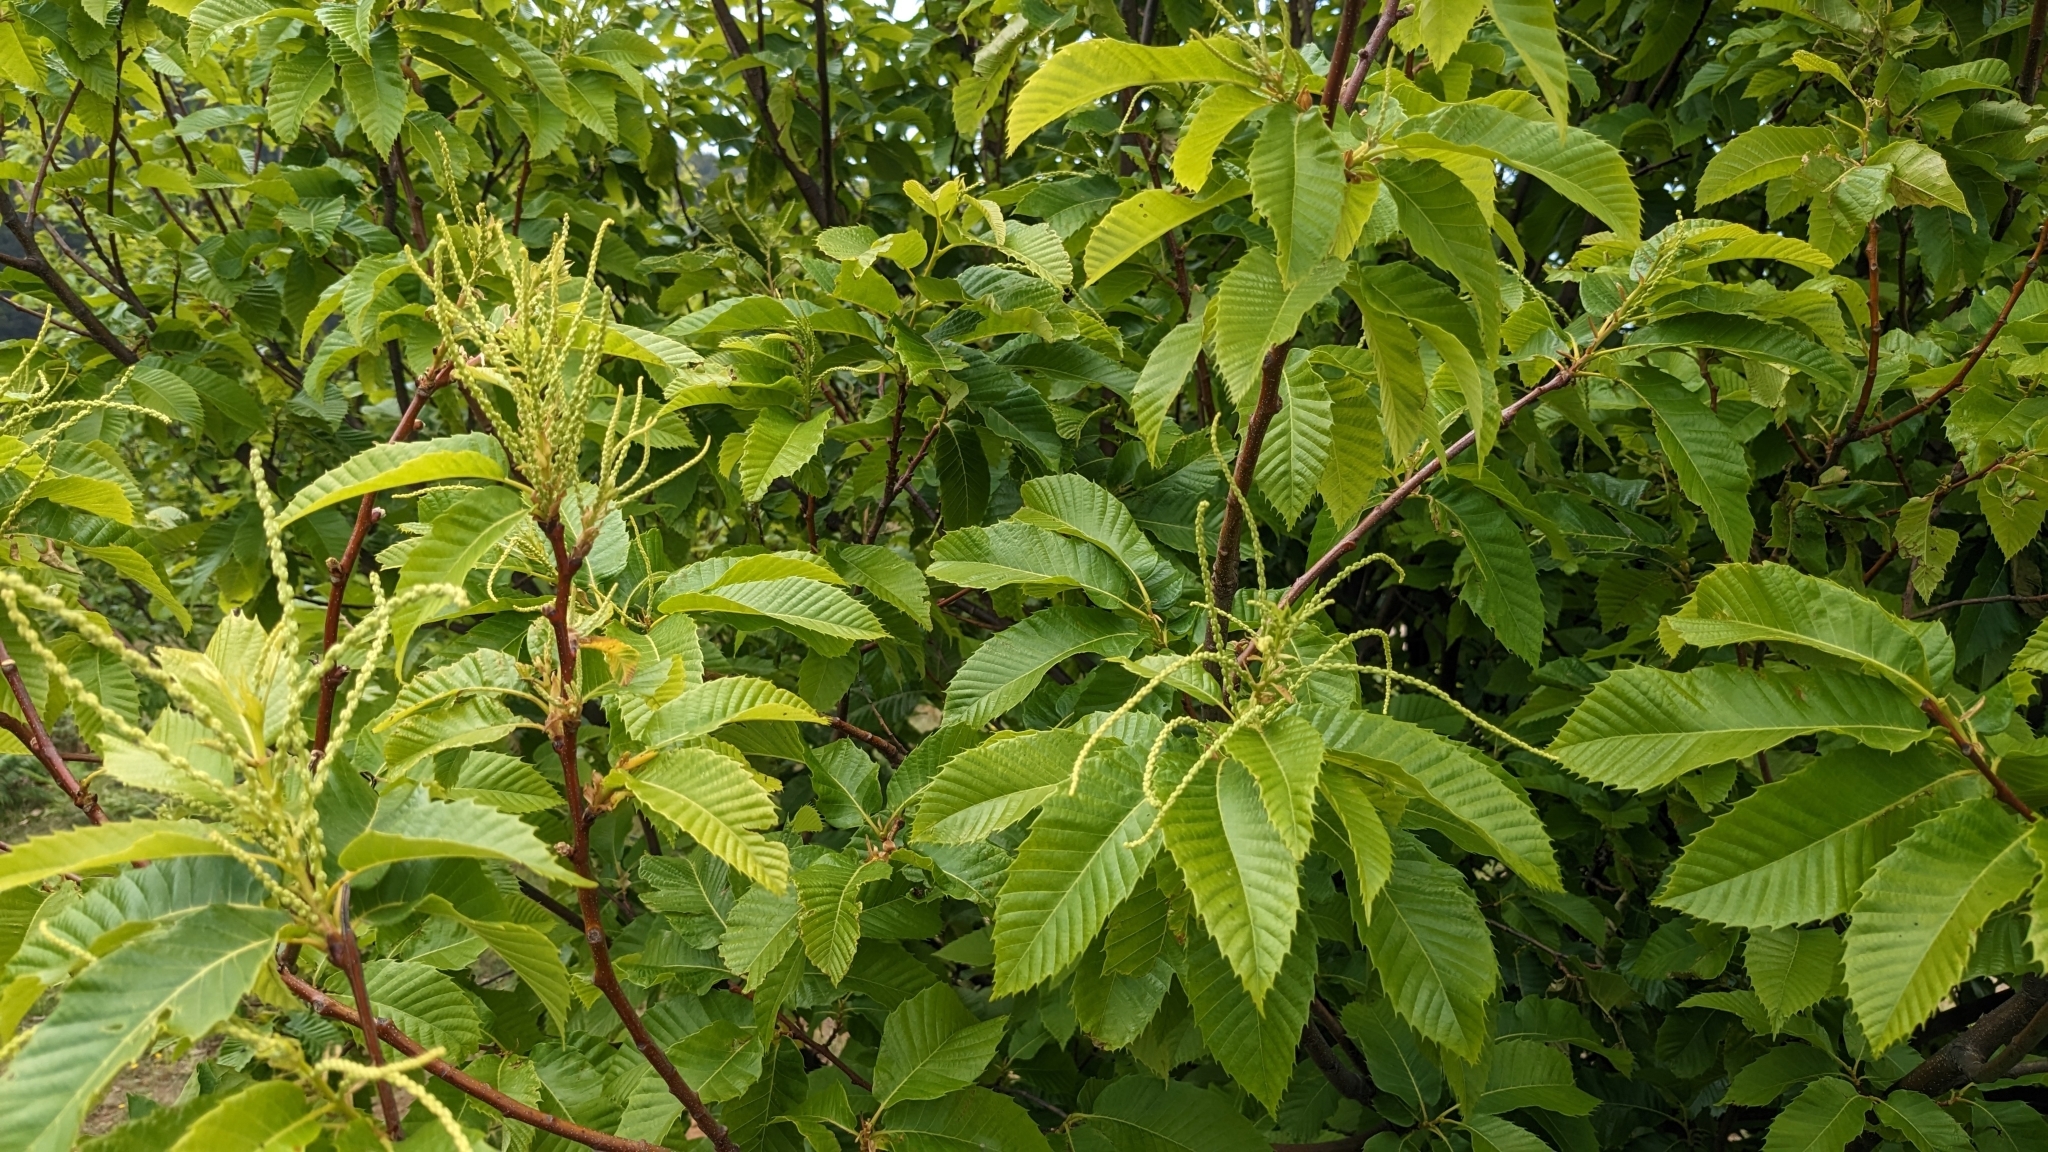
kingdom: Plantae
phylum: Tracheophyta
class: Magnoliopsida
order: Fagales
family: Fagaceae
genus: Castanea
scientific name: Castanea sativa
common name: Sweet chestnut
